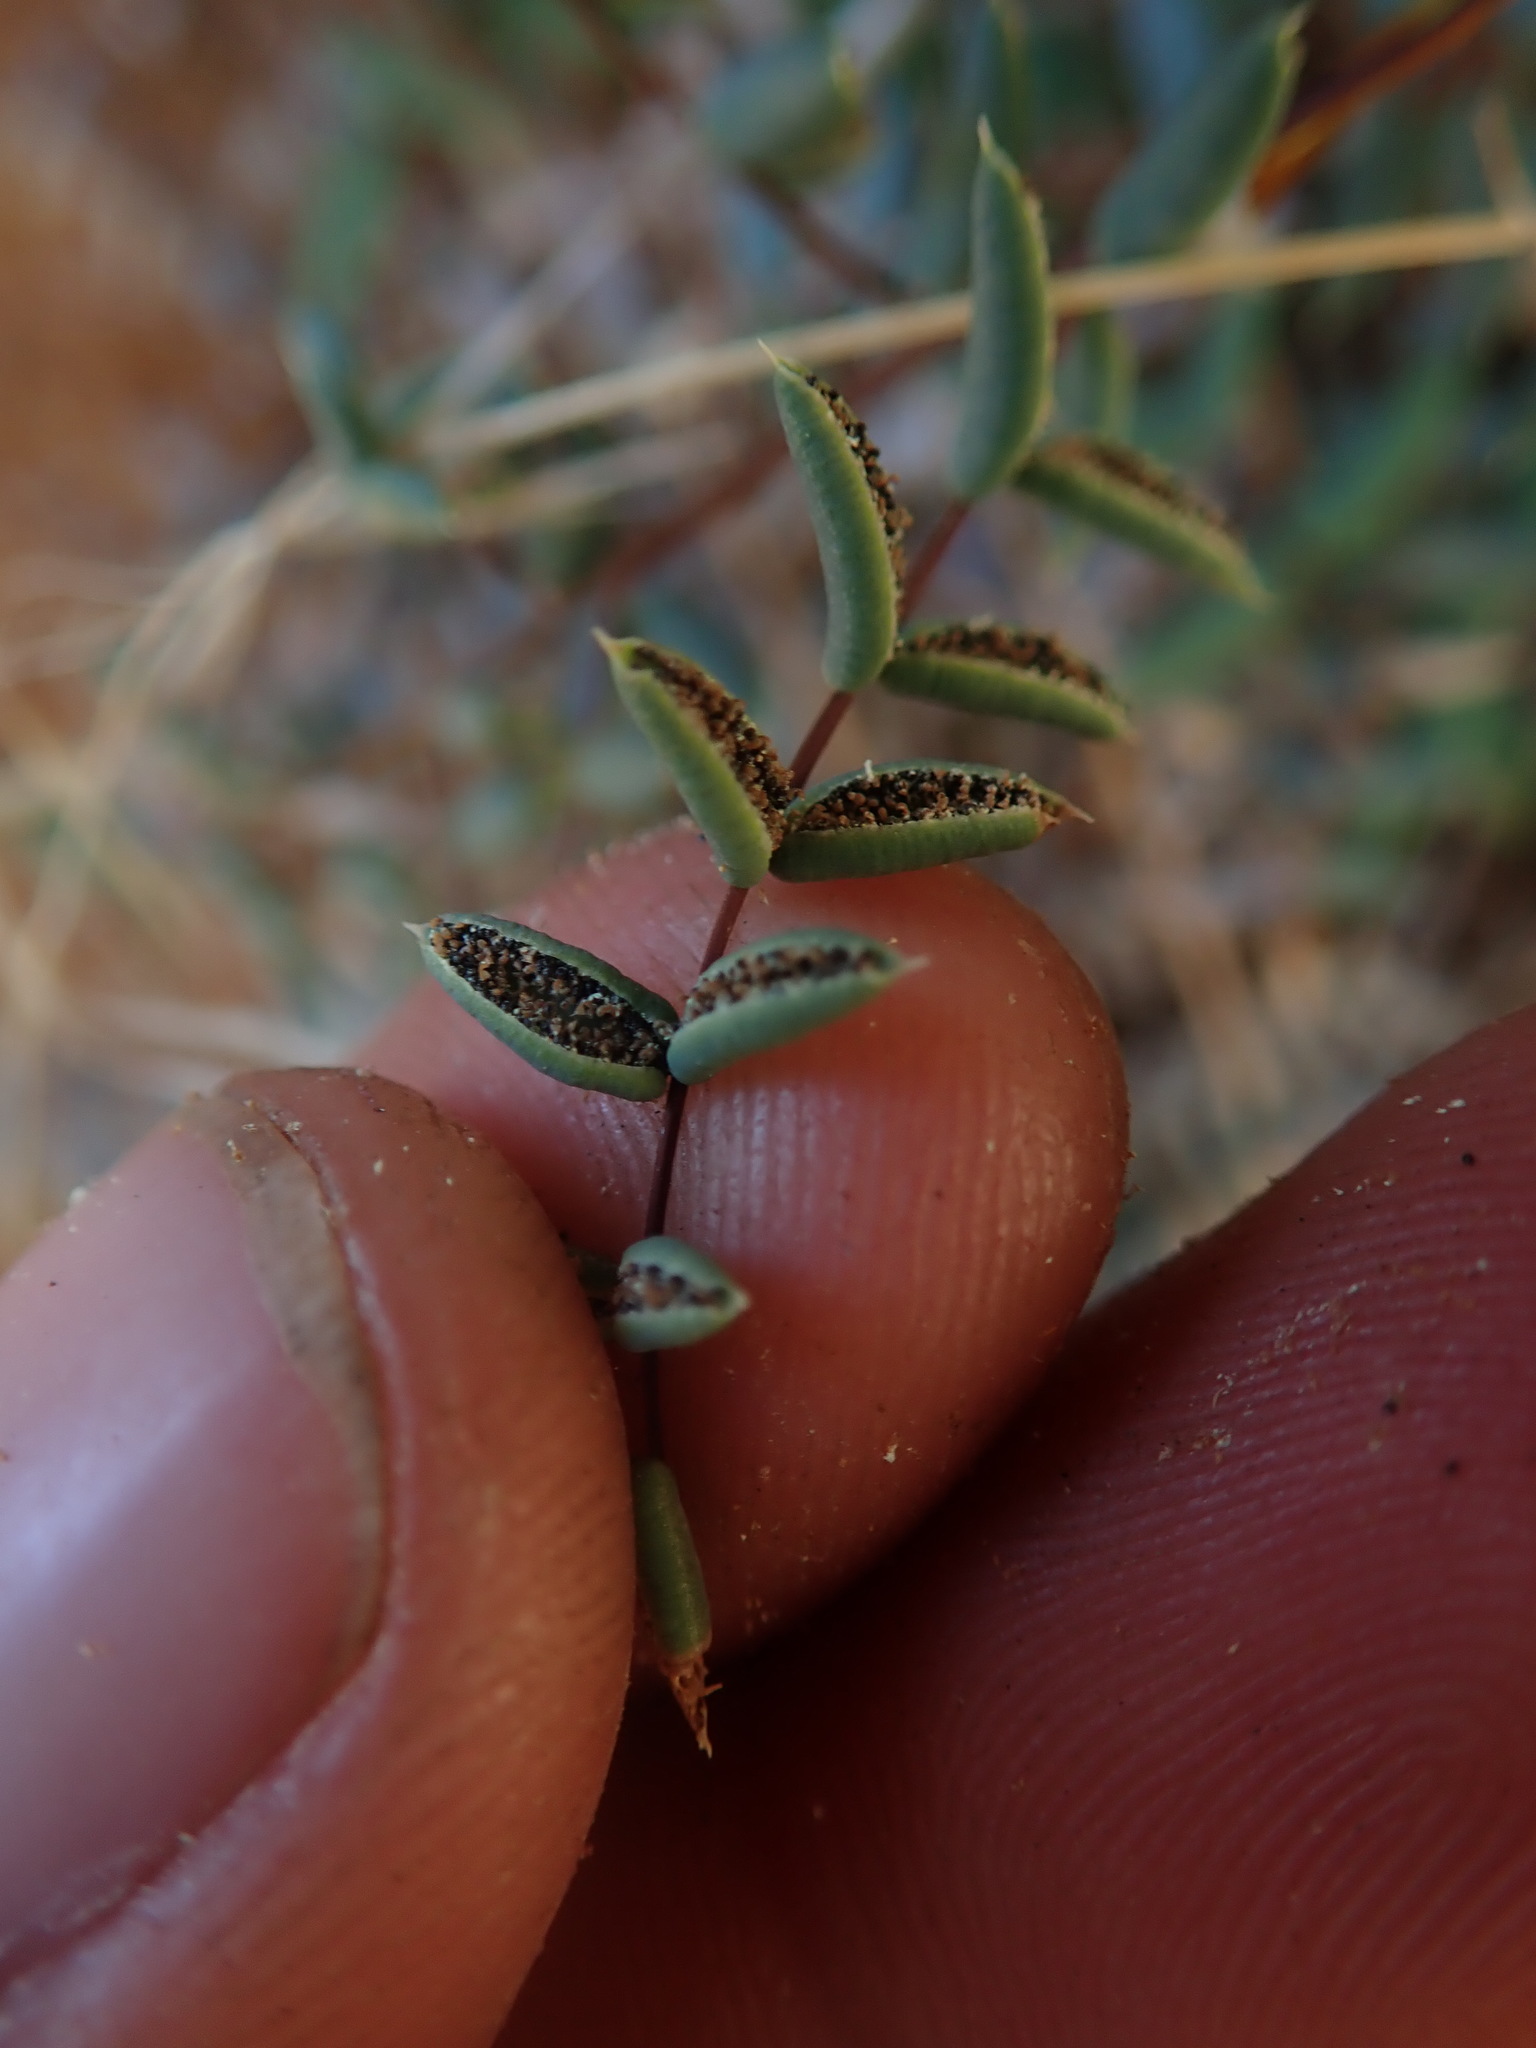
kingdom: Plantae
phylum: Tracheophyta
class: Polypodiopsida
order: Polypodiales
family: Pteridaceae
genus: Pellaea
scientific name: Pellaea truncata
